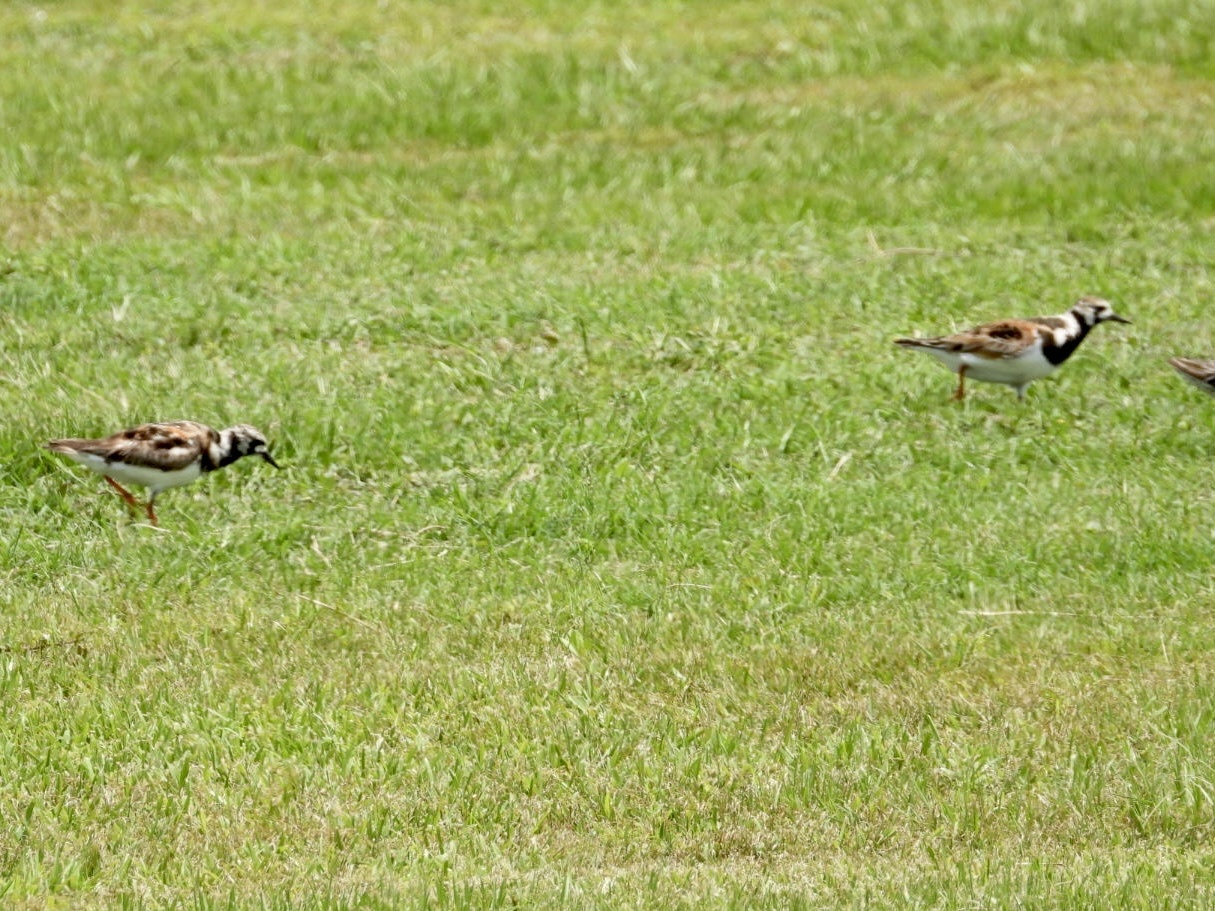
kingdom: Animalia
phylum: Chordata
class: Aves
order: Charadriiformes
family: Scolopacidae
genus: Arenaria
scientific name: Arenaria interpres
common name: Ruddy turnstone
